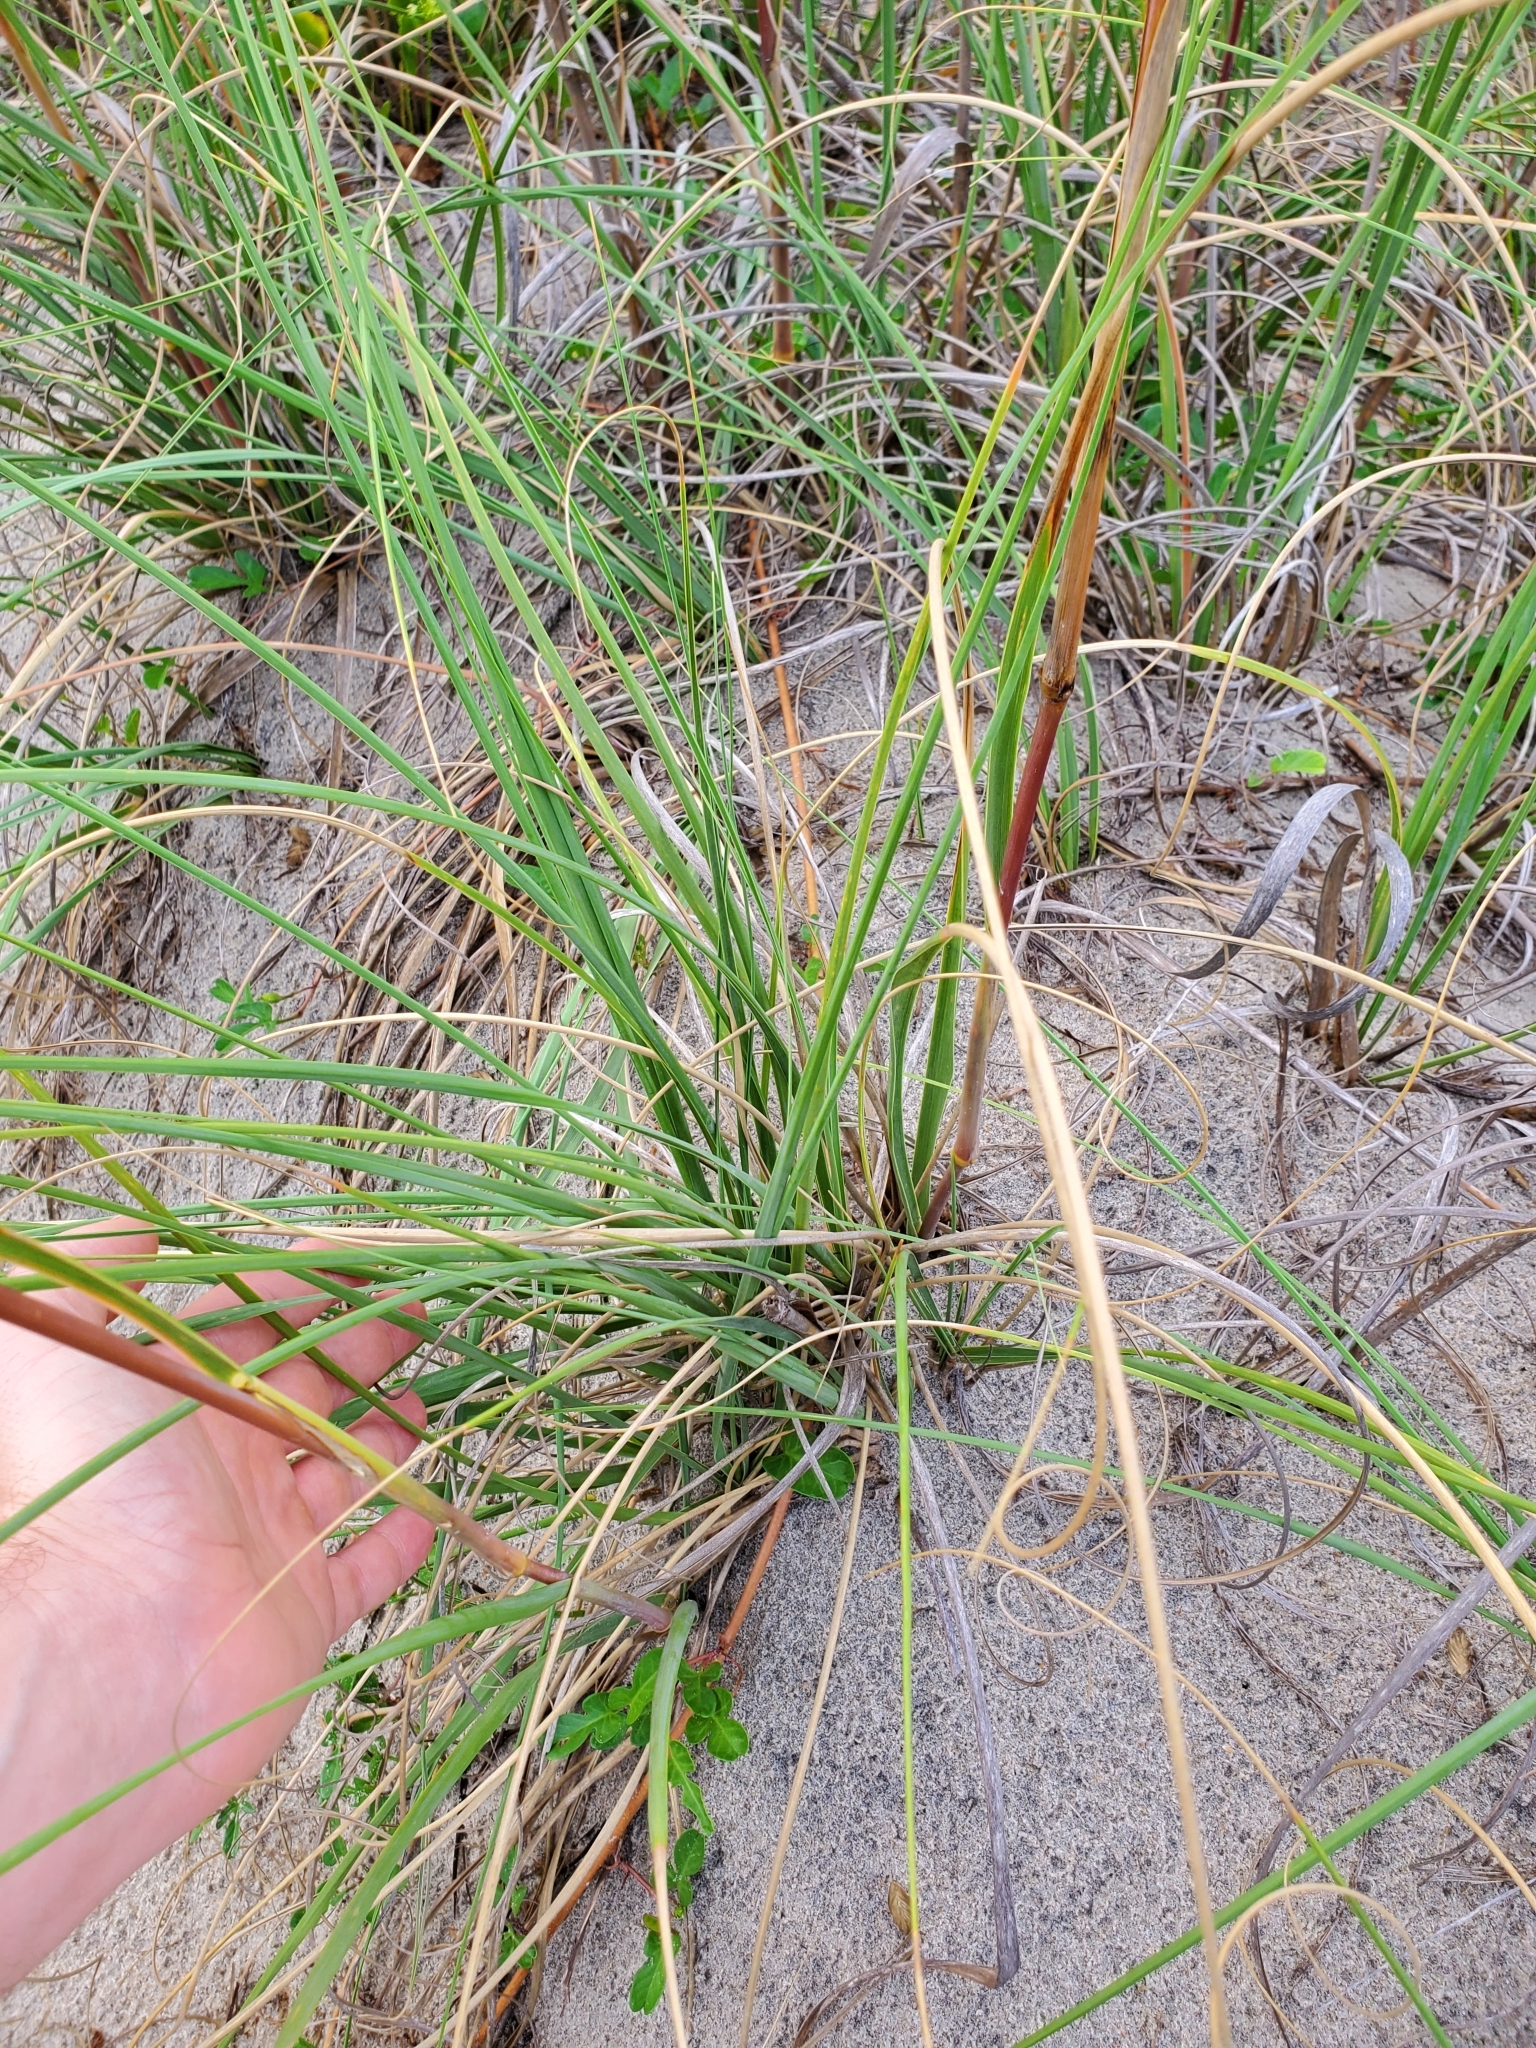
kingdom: Plantae
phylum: Tracheophyta
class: Liliopsida
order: Poales
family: Poaceae
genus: Uniola
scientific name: Uniola paniculata
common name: Seaside-oats
